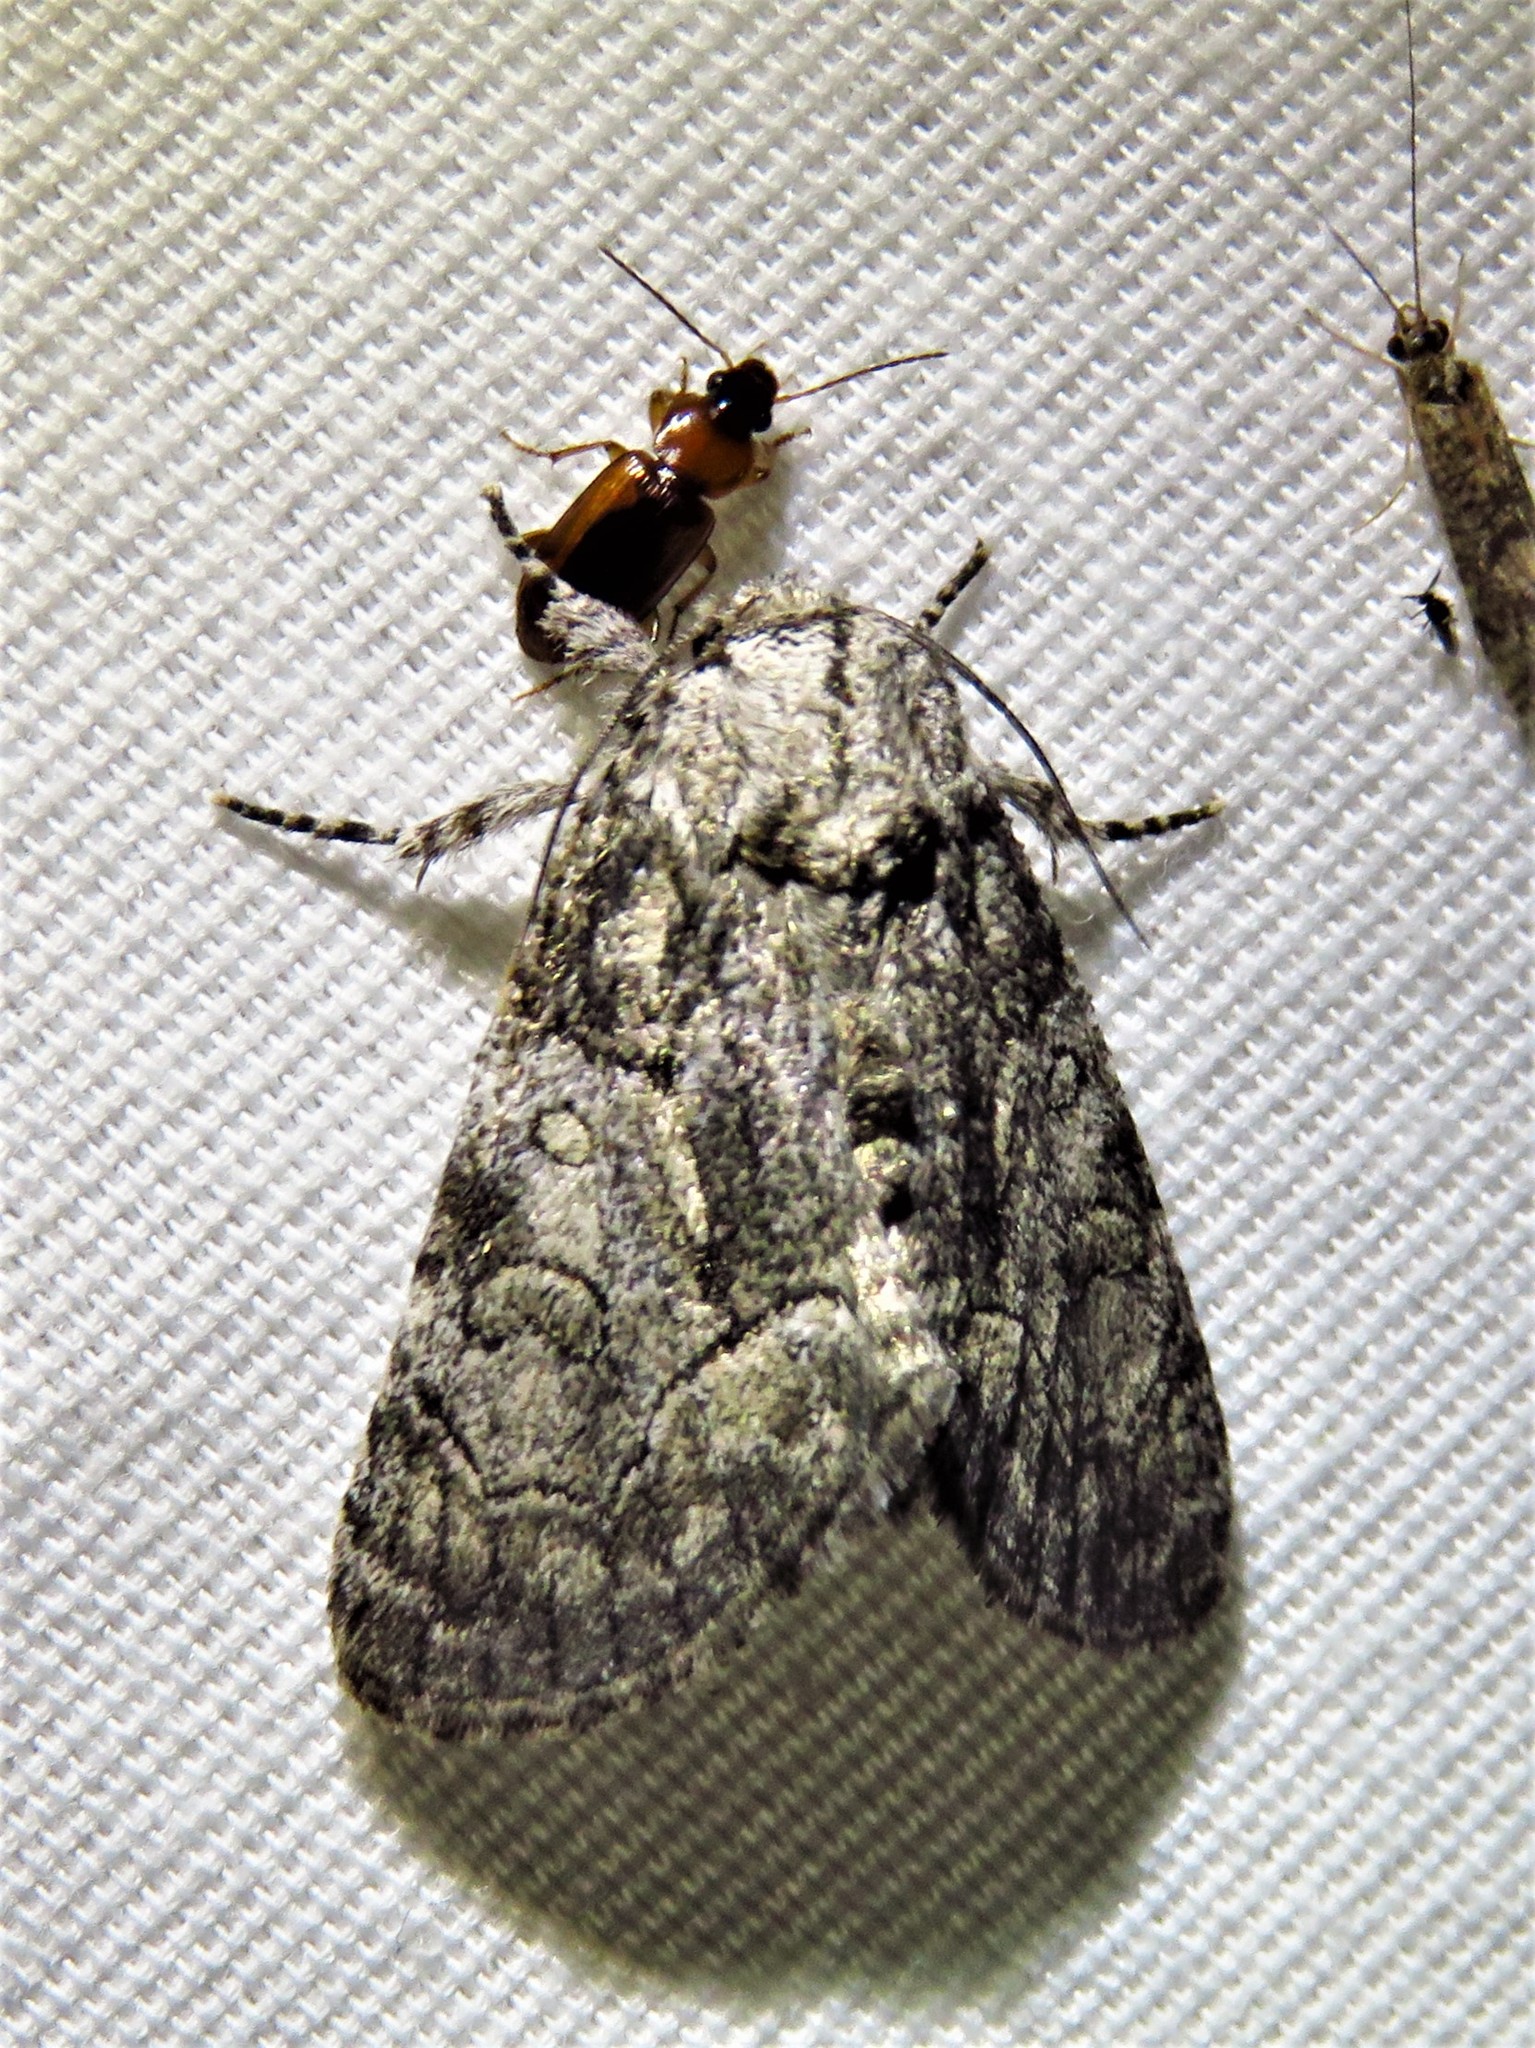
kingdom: Animalia
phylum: Arthropoda
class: Insecta
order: Lepidoptera
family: Noctuidae
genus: Raphia
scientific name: Raphia frater
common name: Brother
